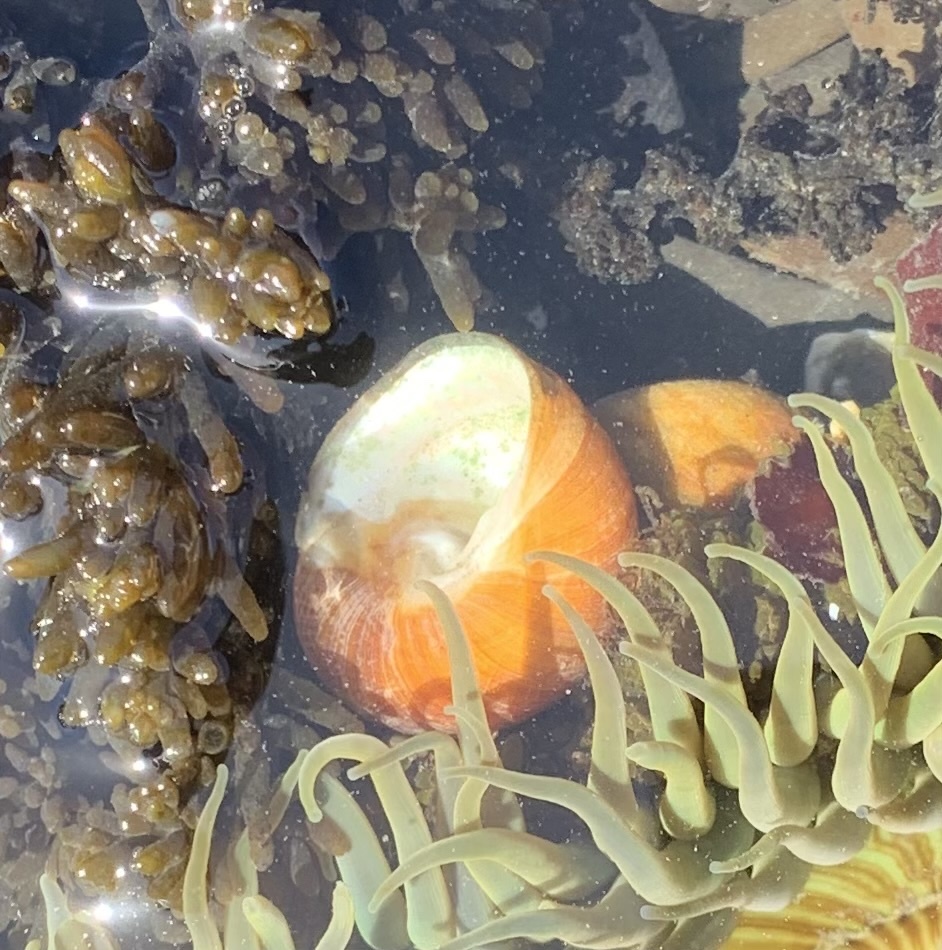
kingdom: Animalia
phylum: Mollusca
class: Gastropoda
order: Trochida
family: Tegulidae
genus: Tegula
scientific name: Tegula brunnea
